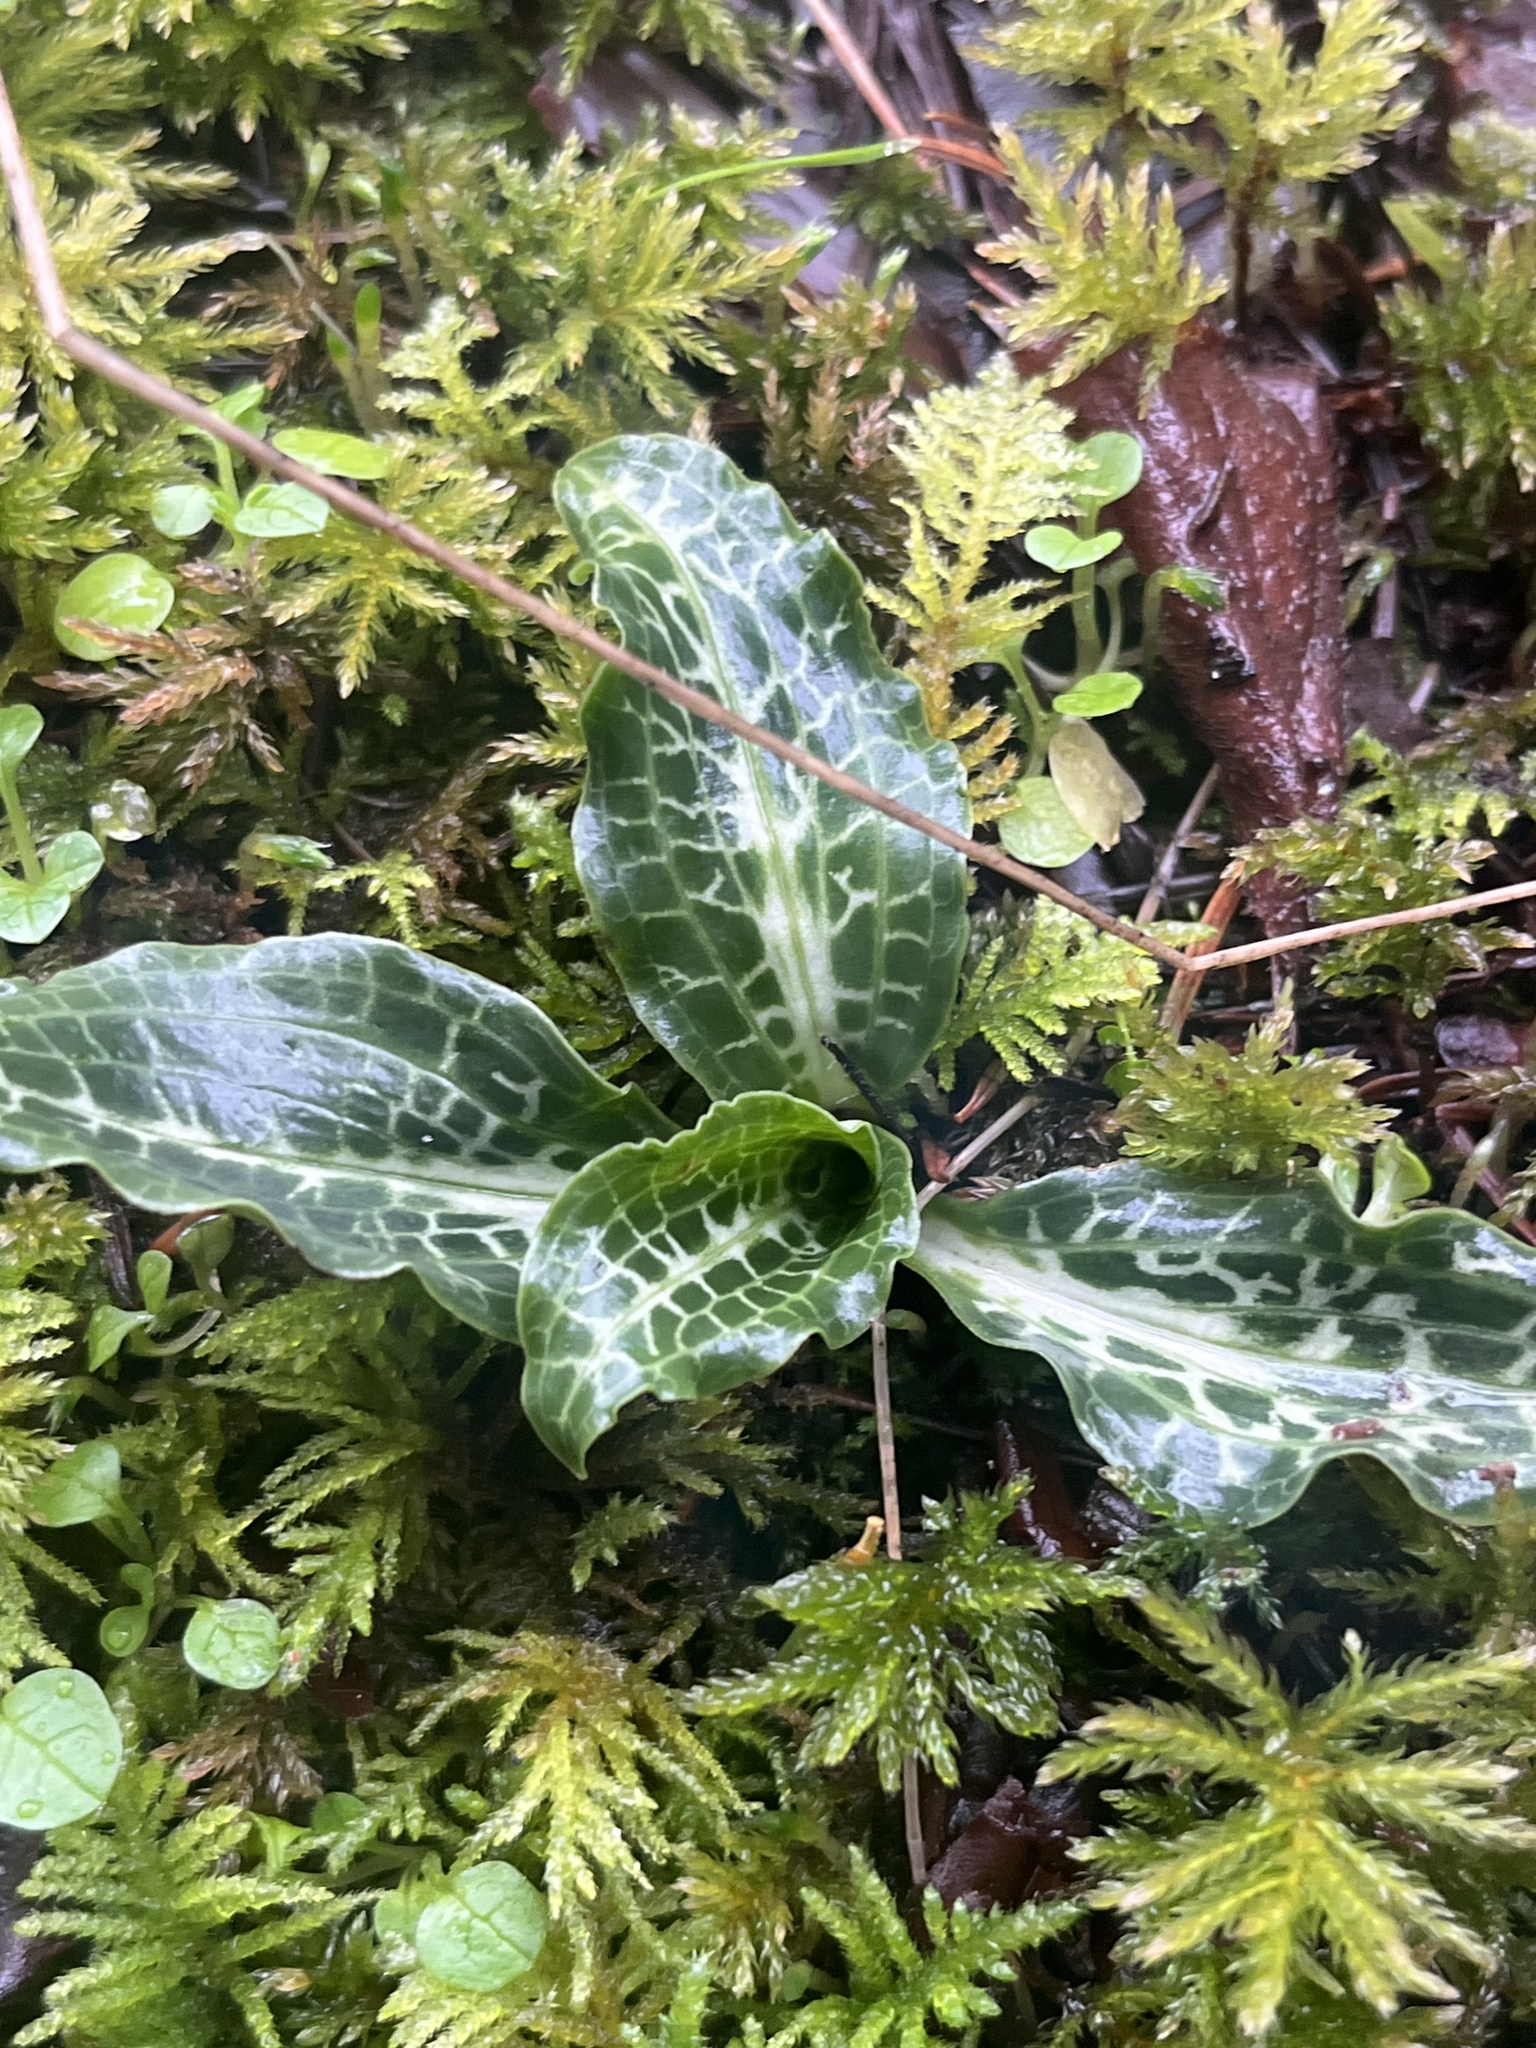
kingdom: Plantae
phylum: Tracheophyta
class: Liliopsida
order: Asparagales
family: Orchidaceae
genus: Goodyera
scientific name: Goodyera oblongifolia
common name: Giant rattlesnake-plantain
